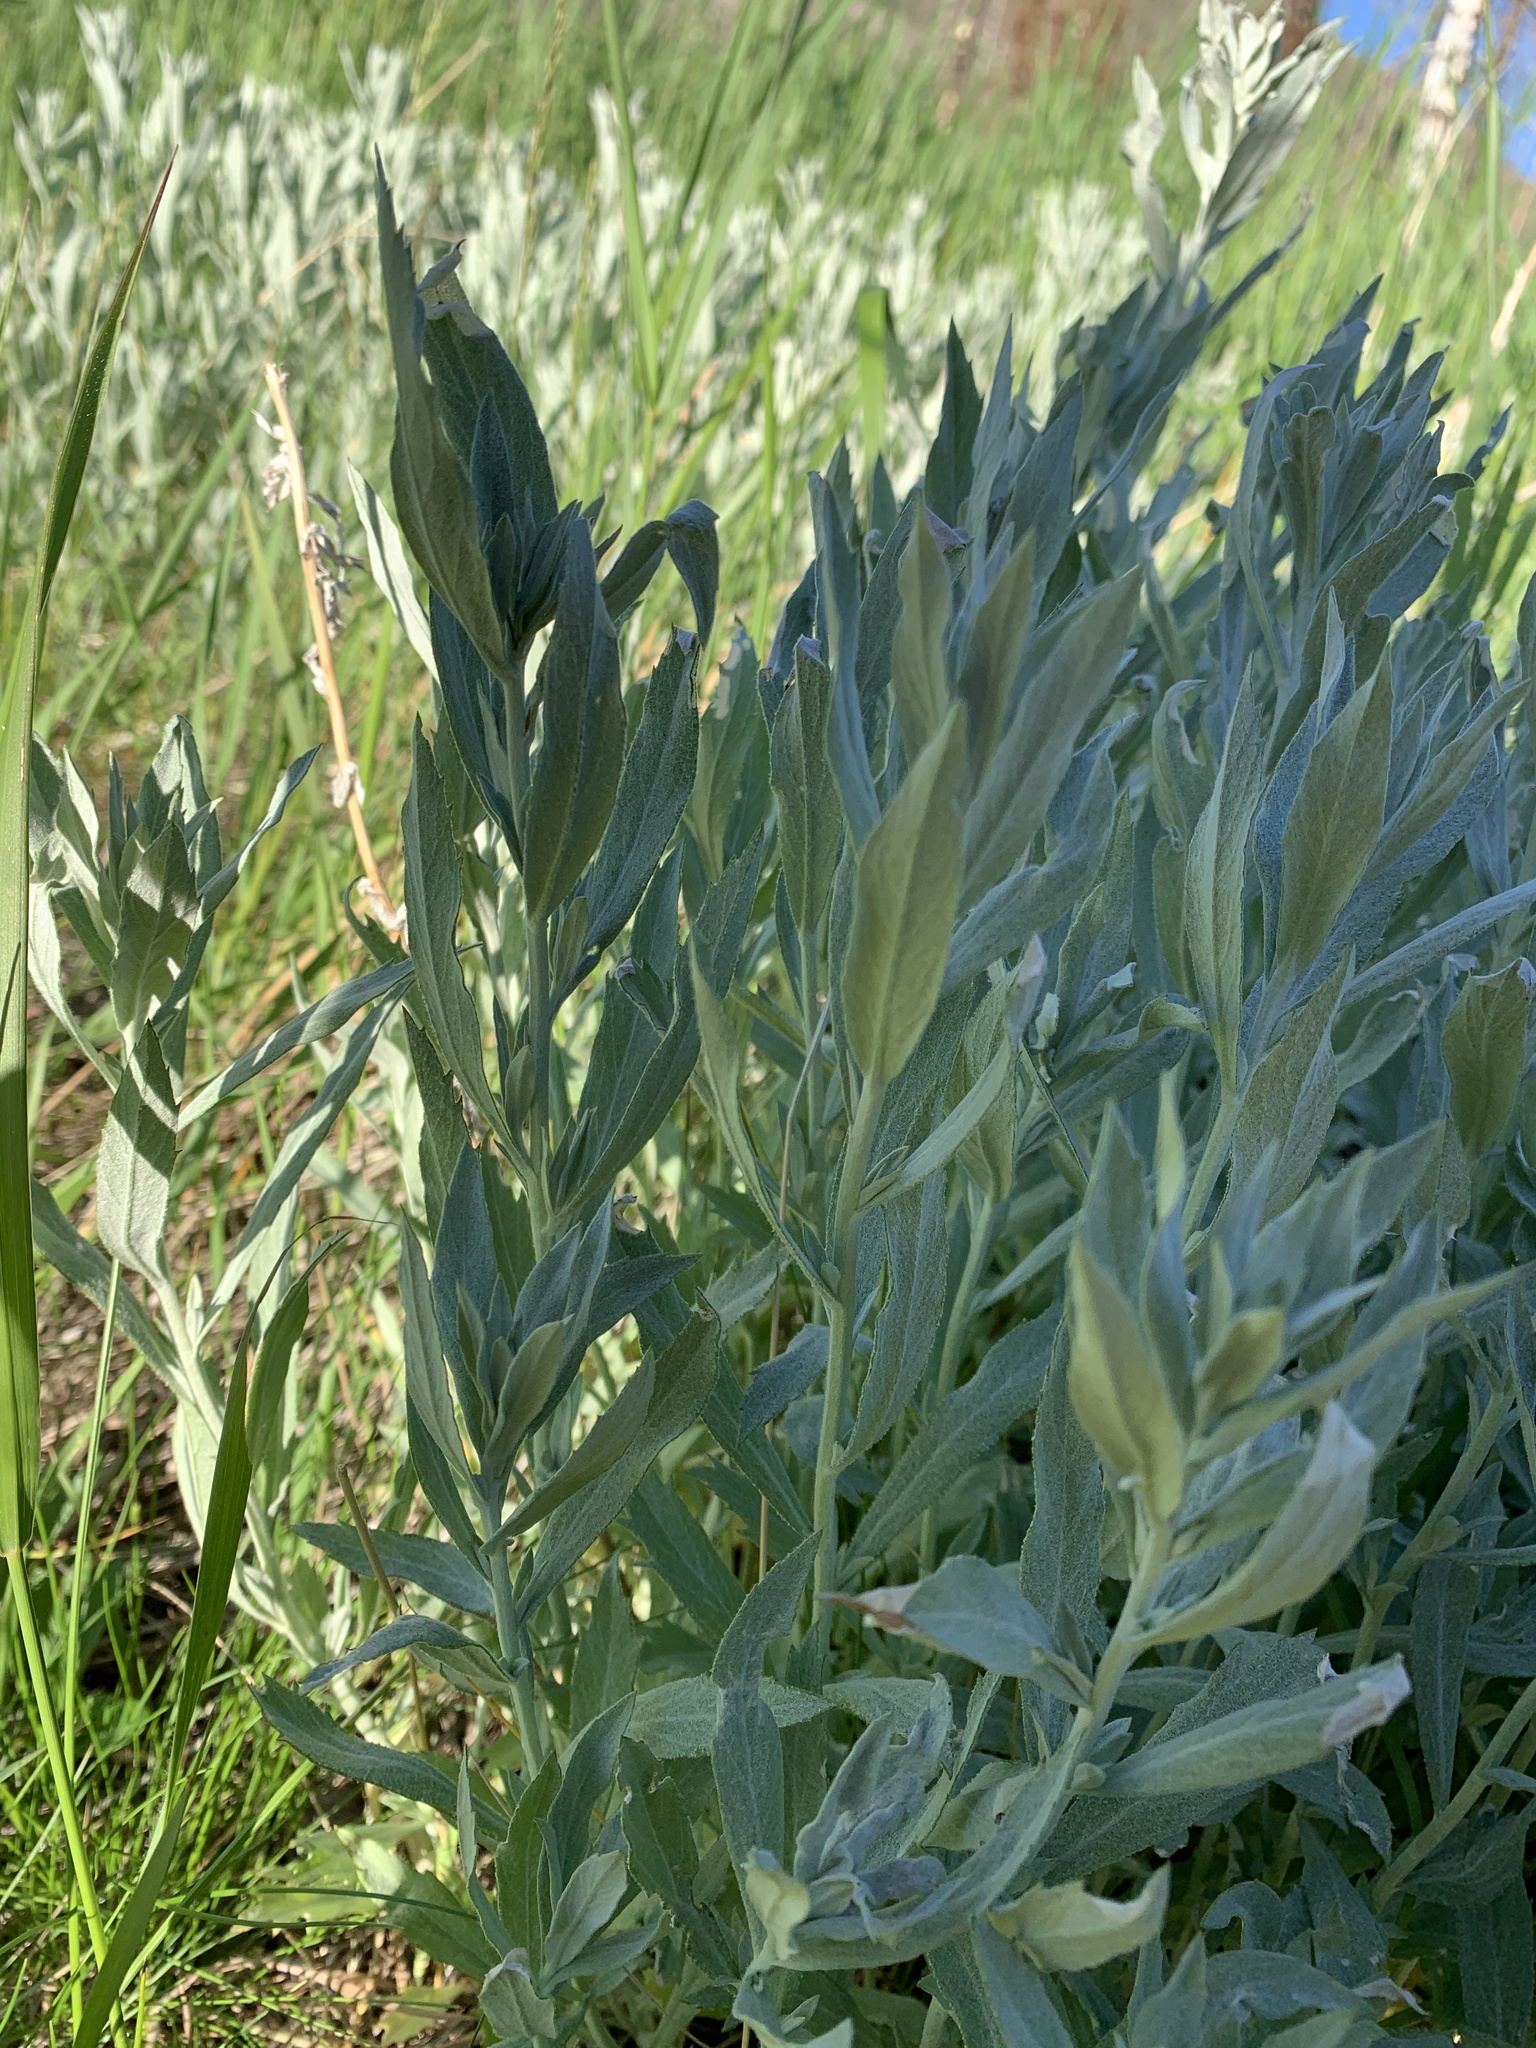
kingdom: Plantae
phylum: Tracheophyta
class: Magnoliopsida
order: Asterales
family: Asteraceae
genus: Artemisia
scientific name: Artemisia ludoviciana
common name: Western mugwort
